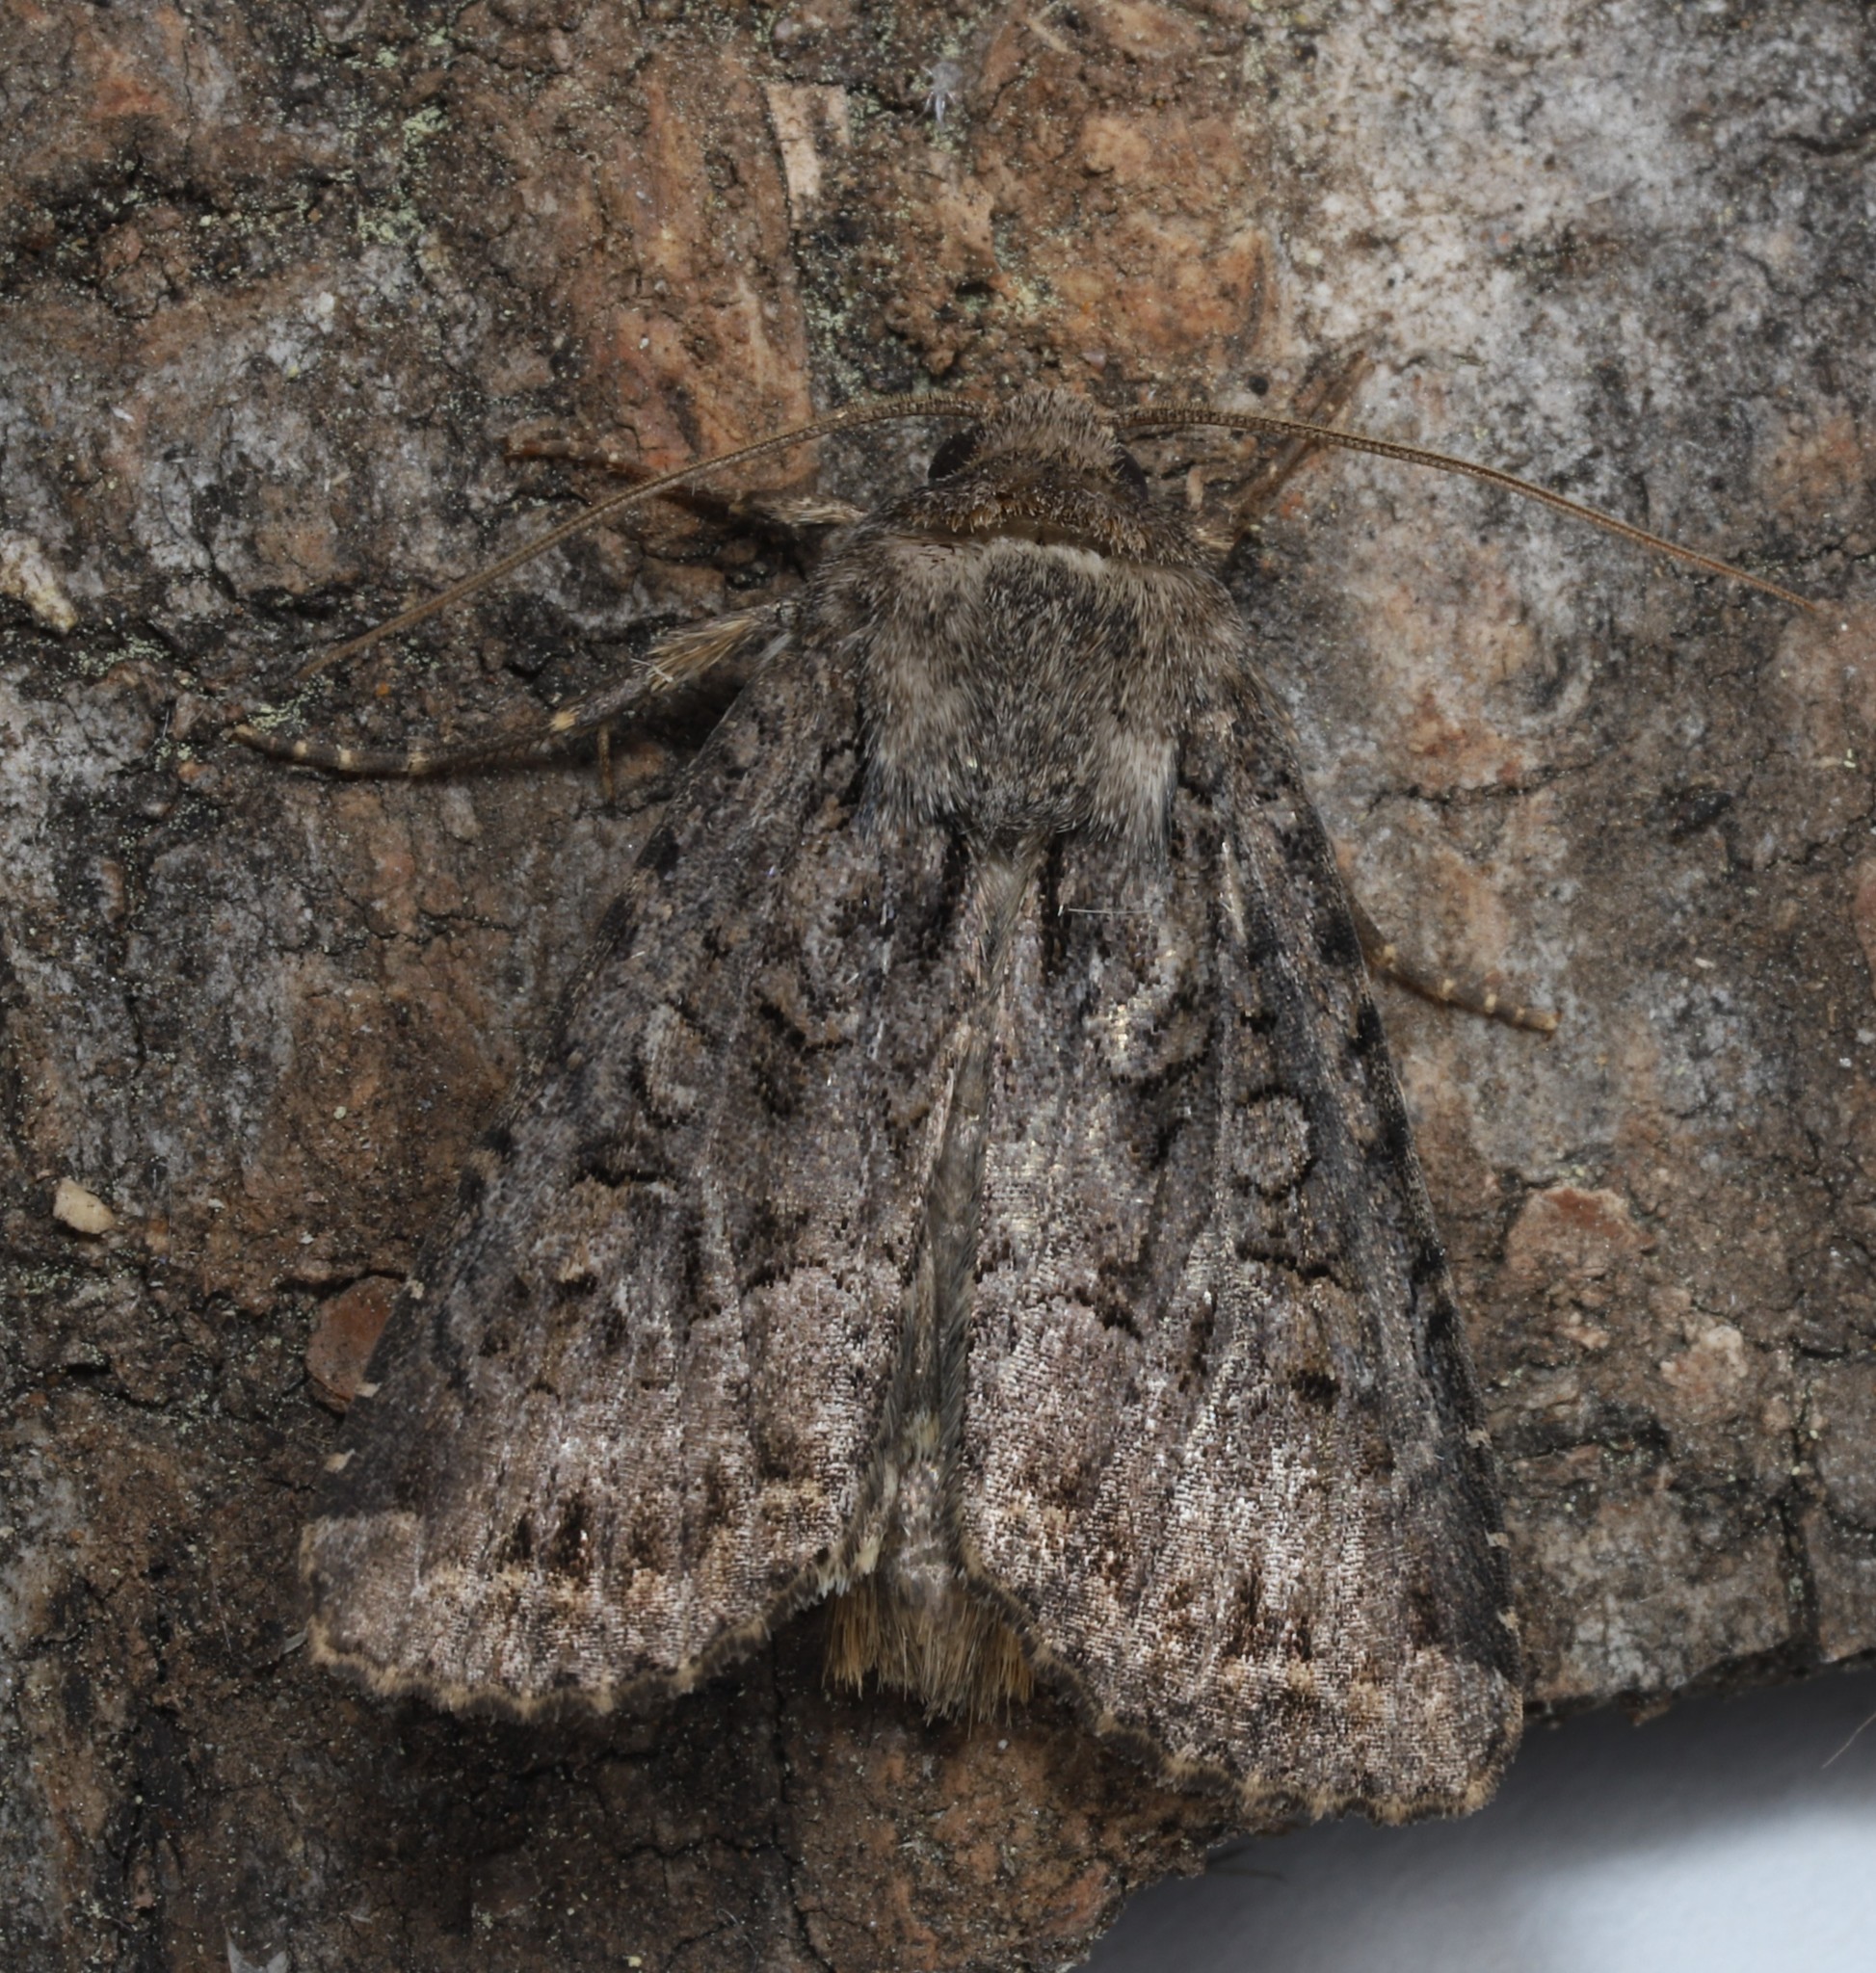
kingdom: Animalia
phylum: Arthropoda
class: Insecta
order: Lepidoptera
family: Noctuidae
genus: Apamea
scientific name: Apamea devastator
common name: Glassy cutworm
